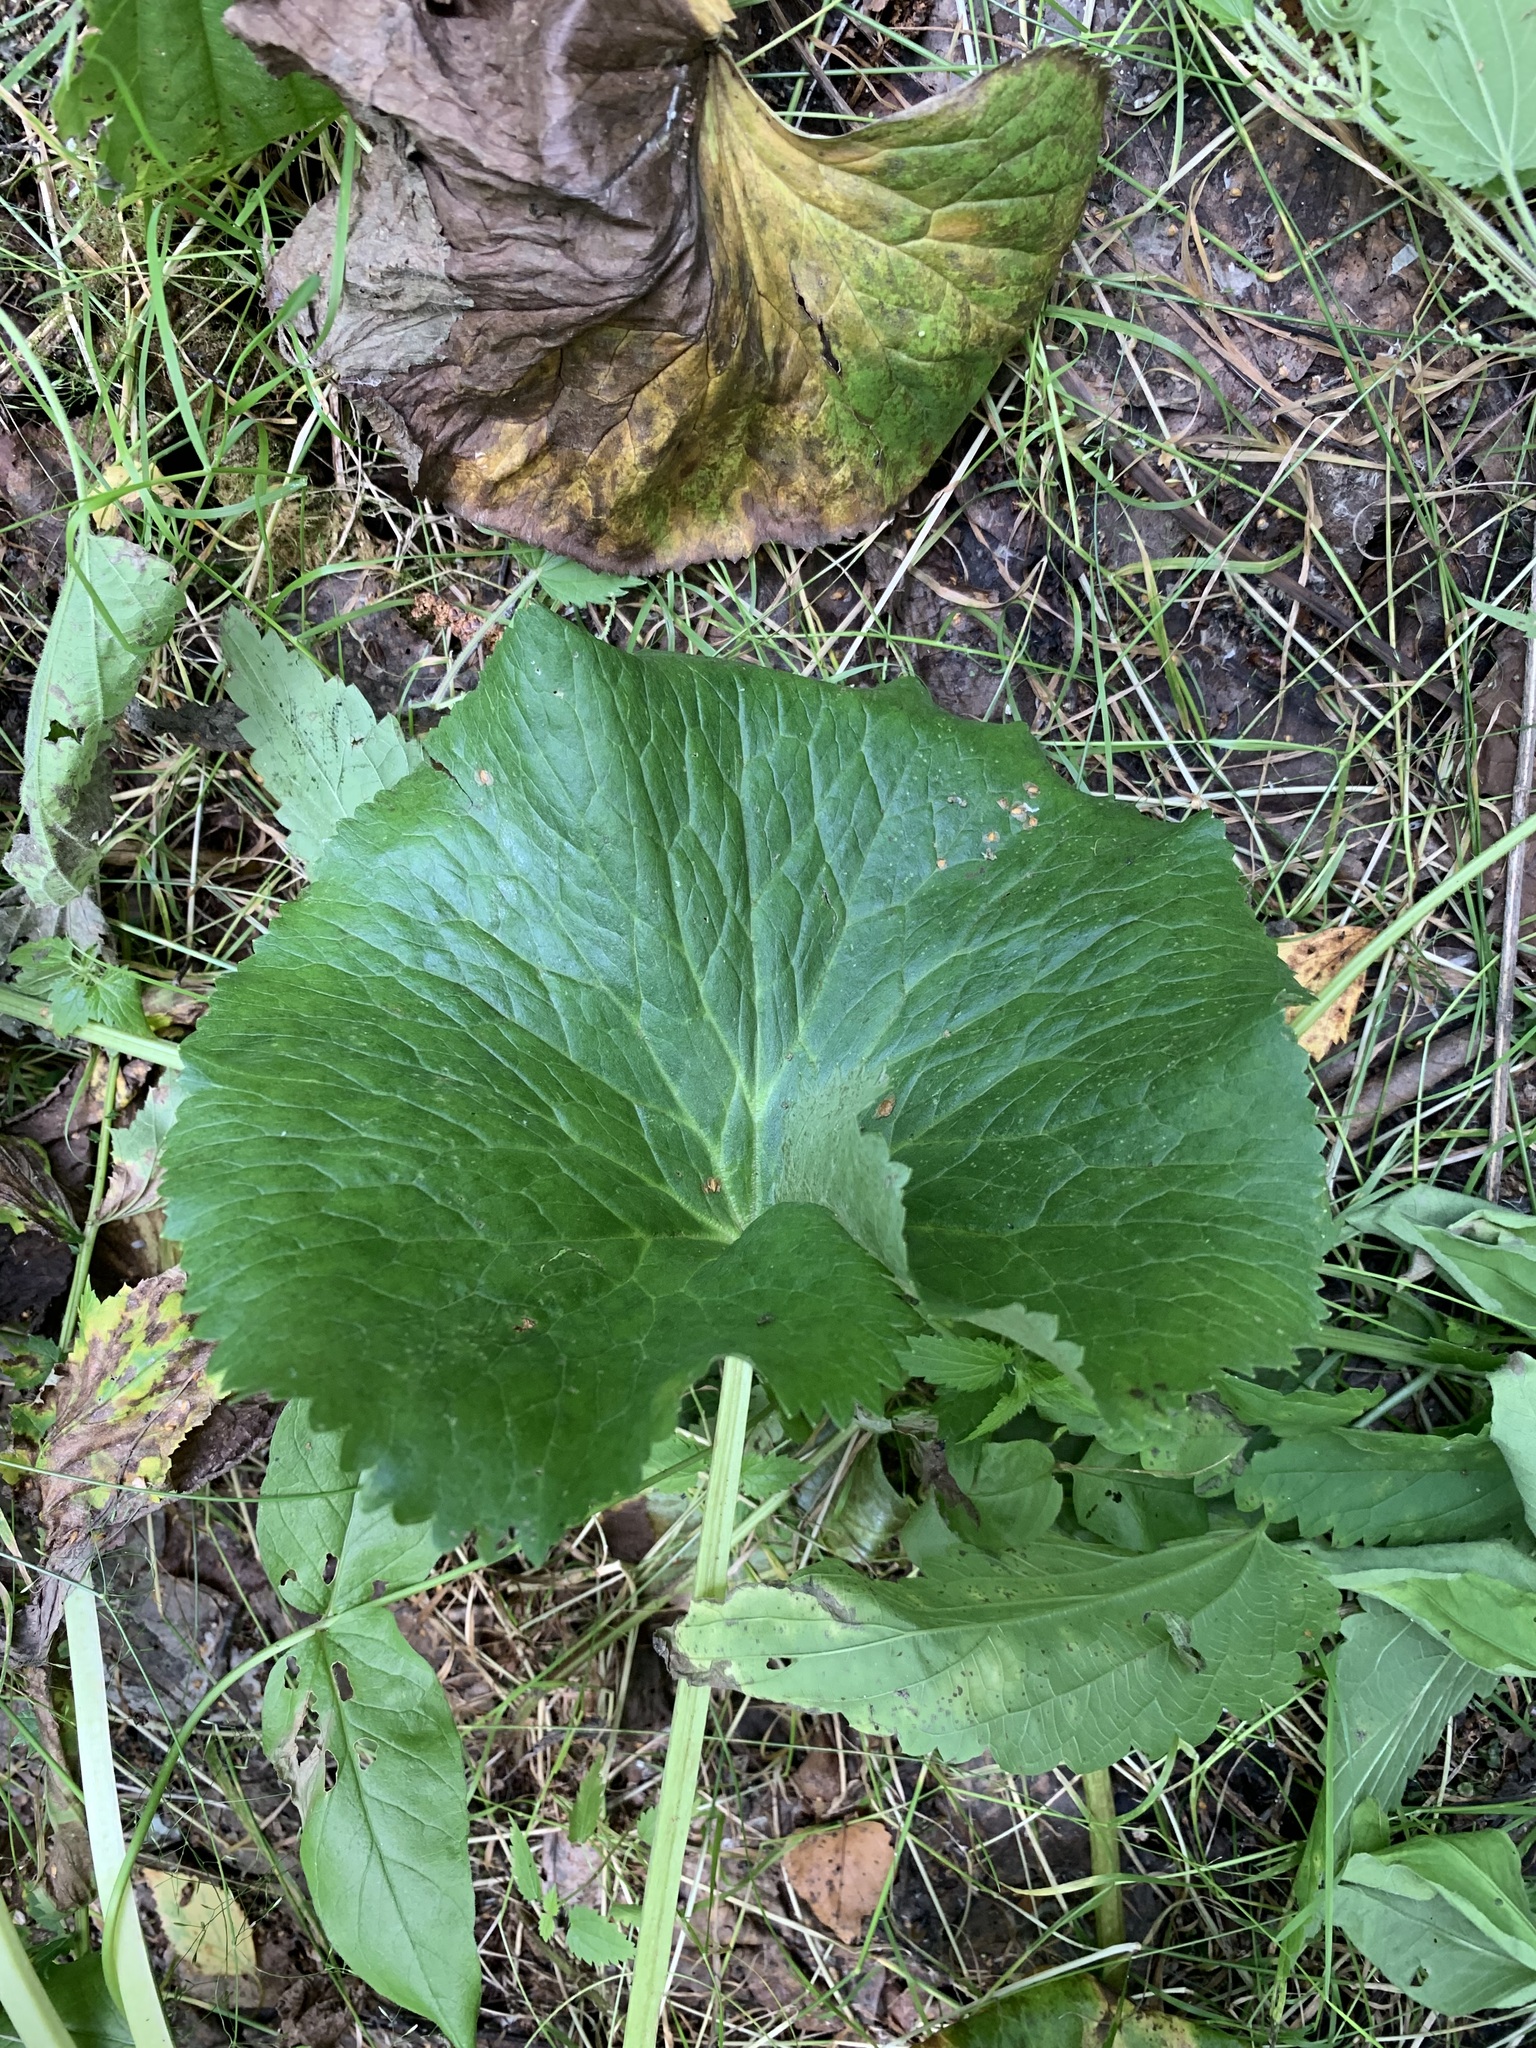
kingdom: Plantae
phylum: Tracheophyta
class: Magnoliopsida
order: Ranunculales
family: Ranunculaceae
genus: Caltha
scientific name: Caltha palustris
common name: Marsh marigold
